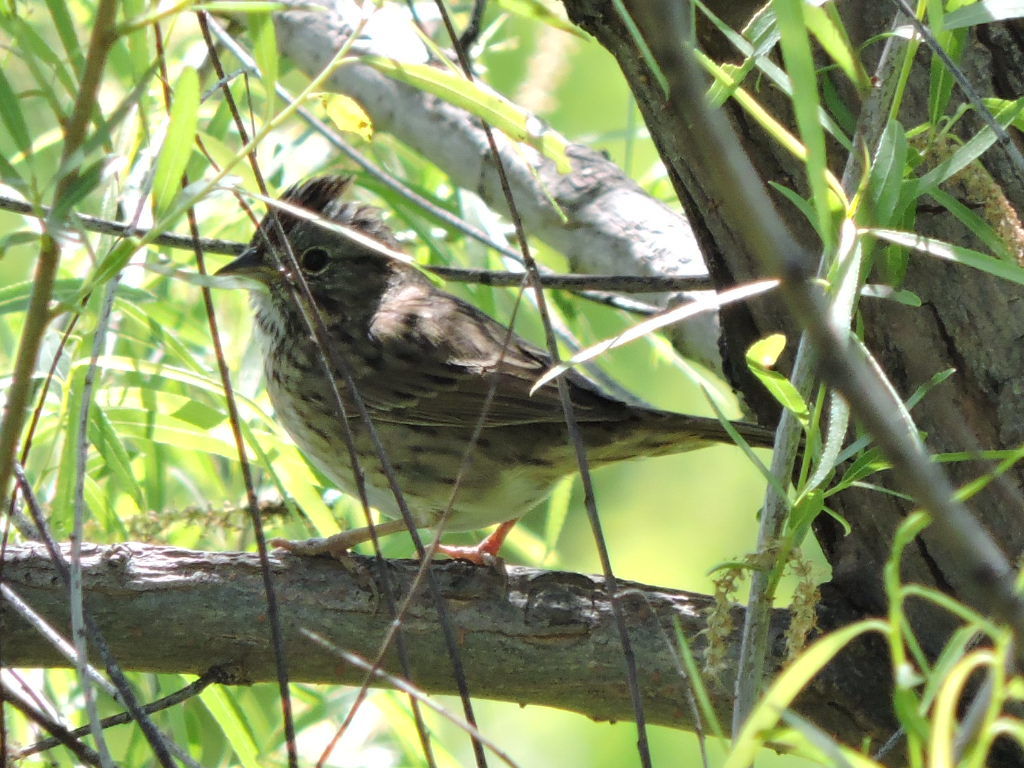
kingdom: Animalia
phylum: Chordata
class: Aves
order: Passeriformes
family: Passerellidae
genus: Melospiza
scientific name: Melospiza lincolnii
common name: Lincoln's sparrow
